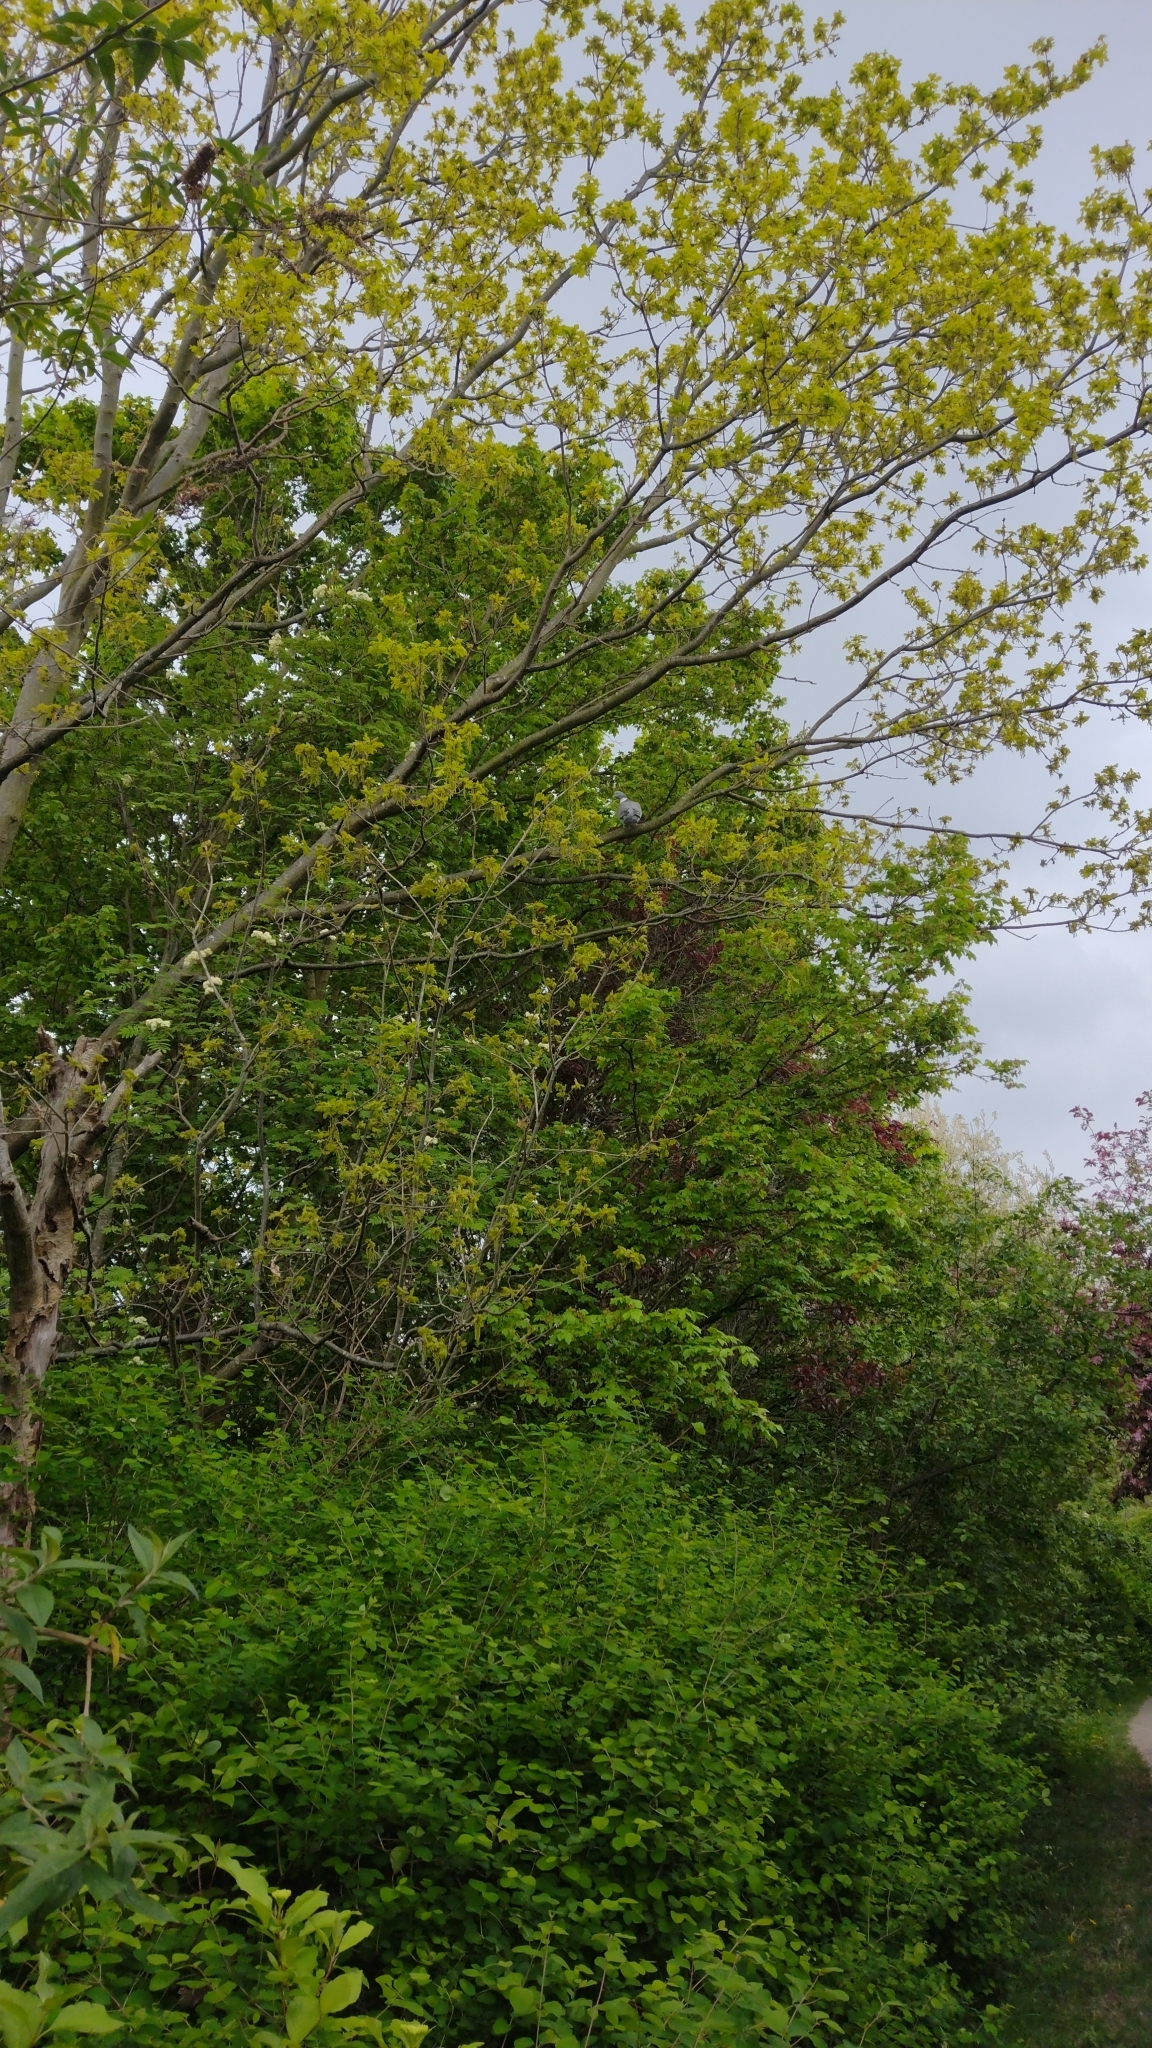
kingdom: Animalia
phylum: Chordata
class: Aves
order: Columbiformes
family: Columbidae
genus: Columba
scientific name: Columba palumbus
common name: Common wood pigeon
